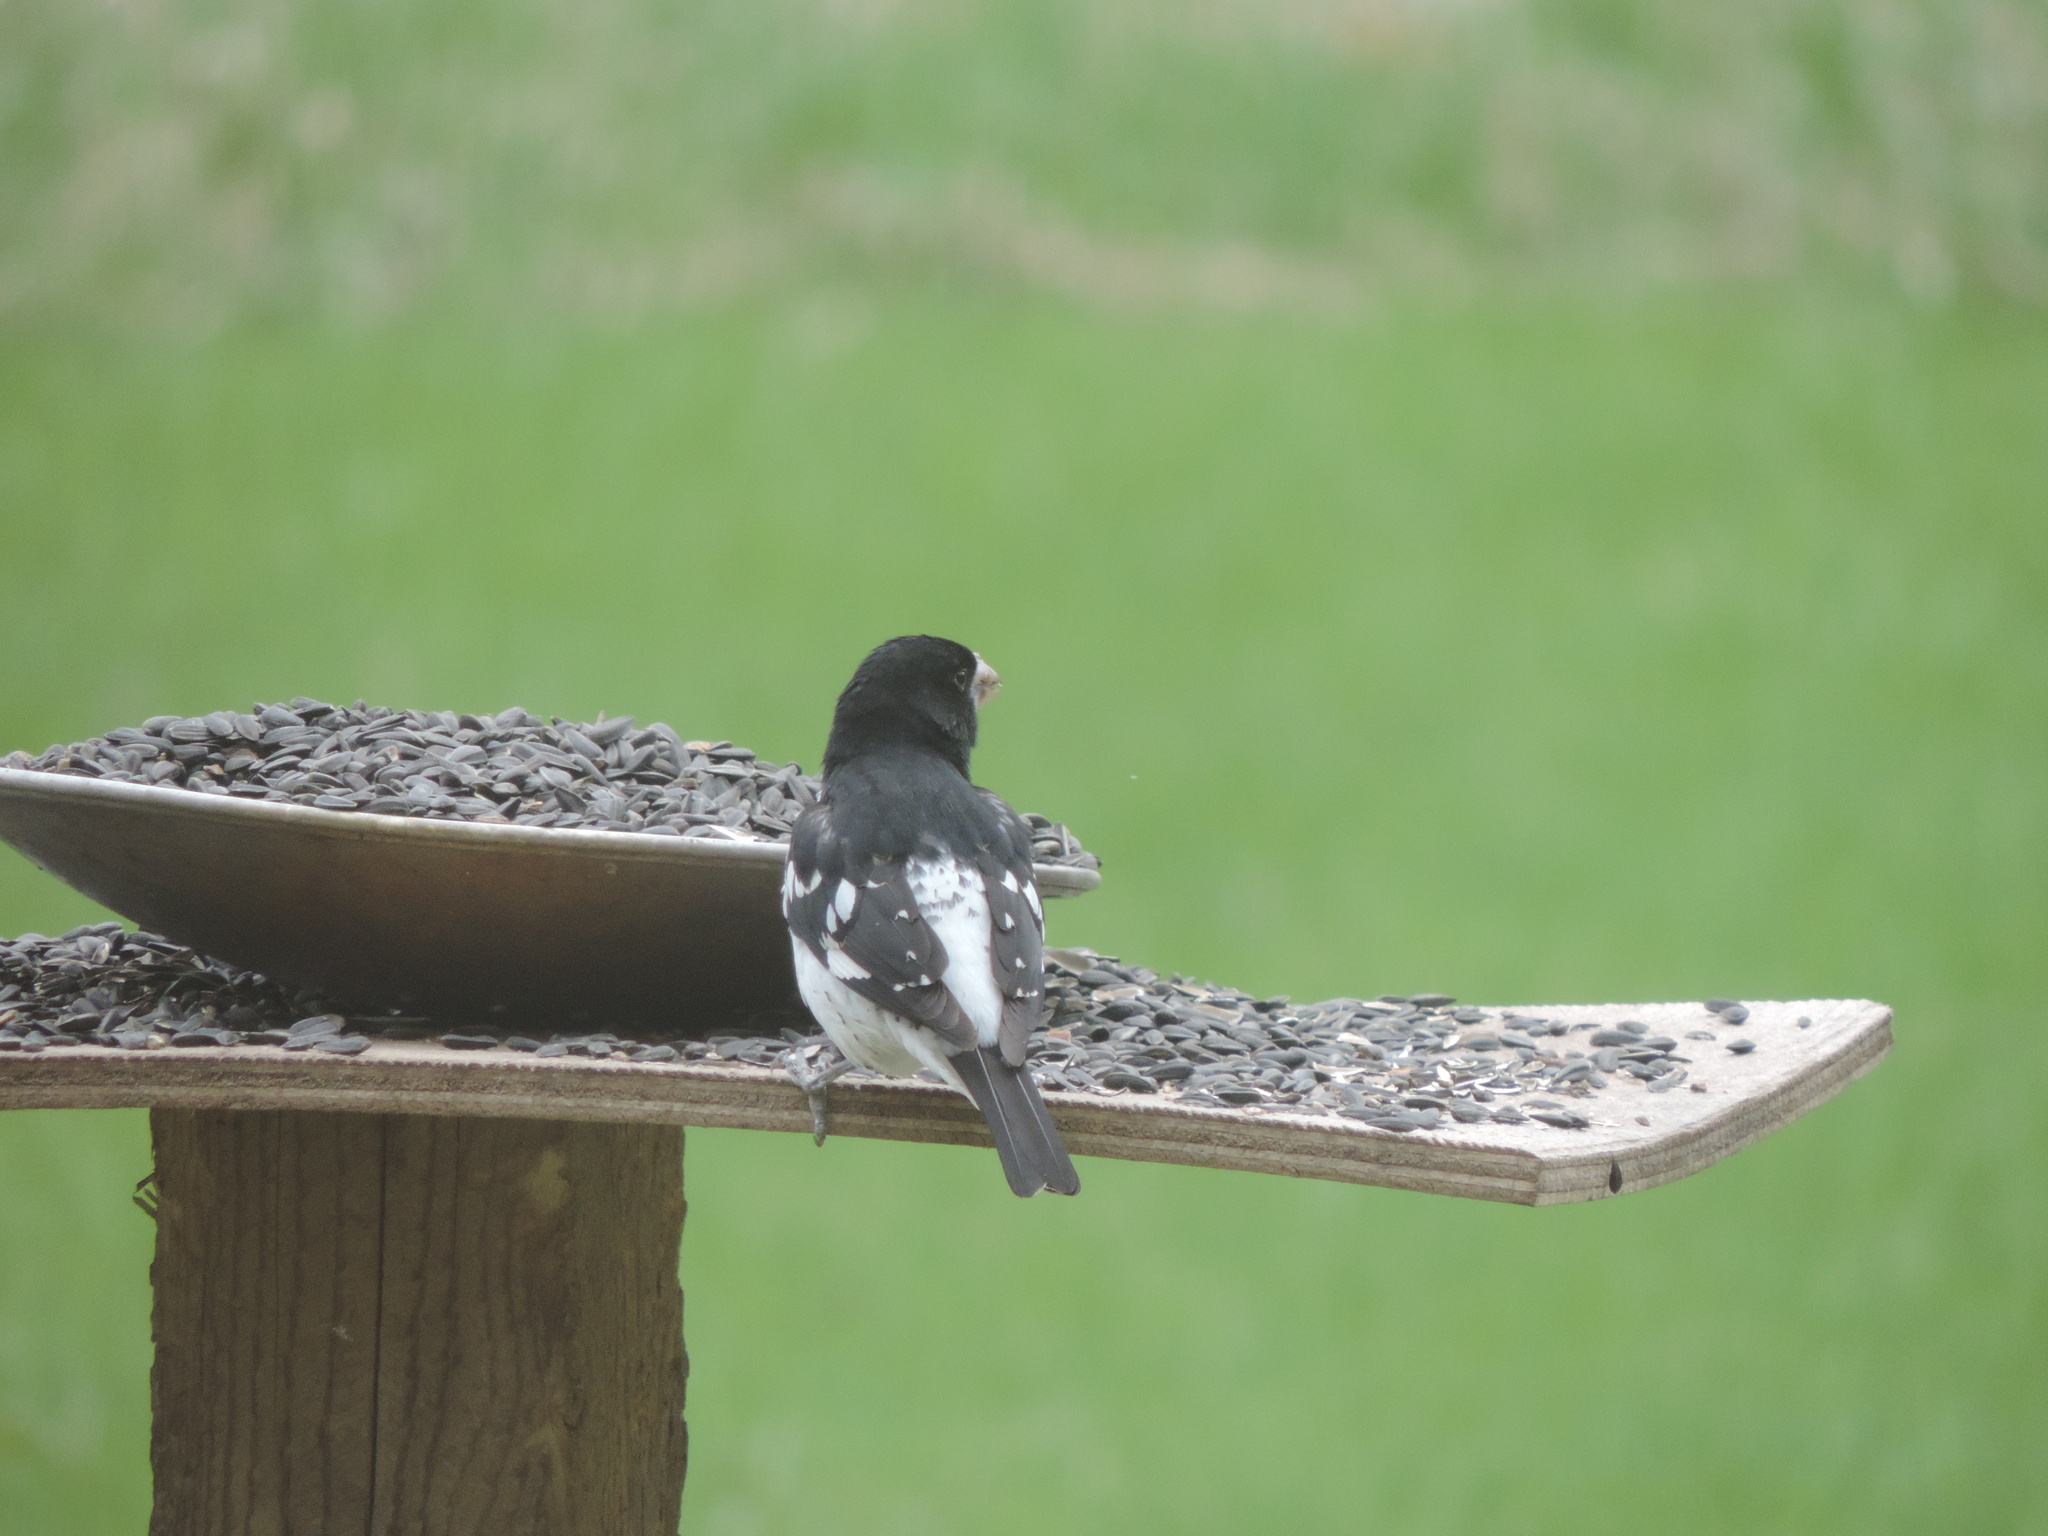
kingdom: Animalia
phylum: Chordata
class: Aves
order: Passeriformes
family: Cardinalidae
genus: Pheucticus
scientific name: Pheucticus ludovicianus
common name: Rose-breasted grosbeak
